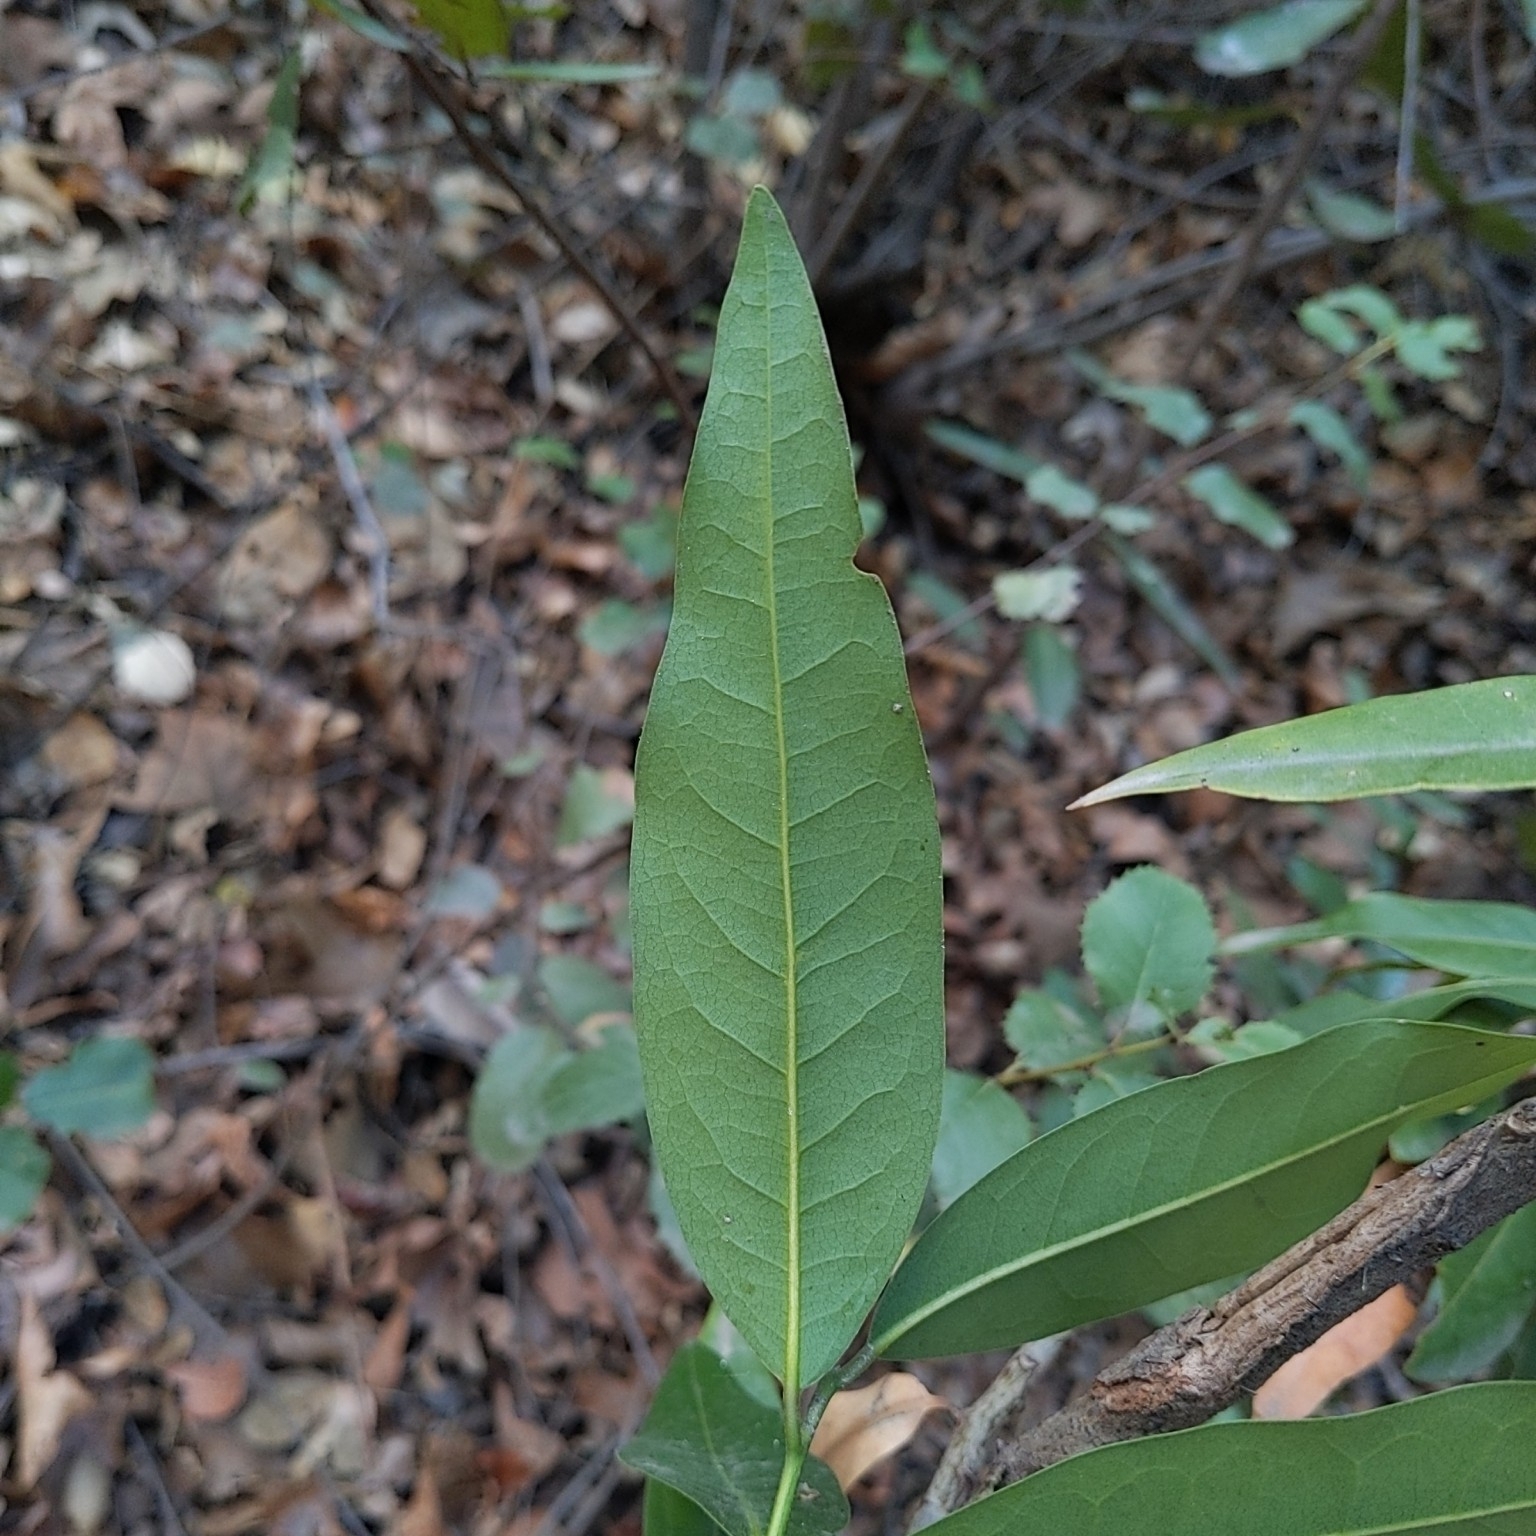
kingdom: Plantae
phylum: Tracheophyta
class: Magnoliopsida
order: Laurales
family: Lauraceae
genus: Umbellularia
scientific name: Umbellularia californica
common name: California bay
